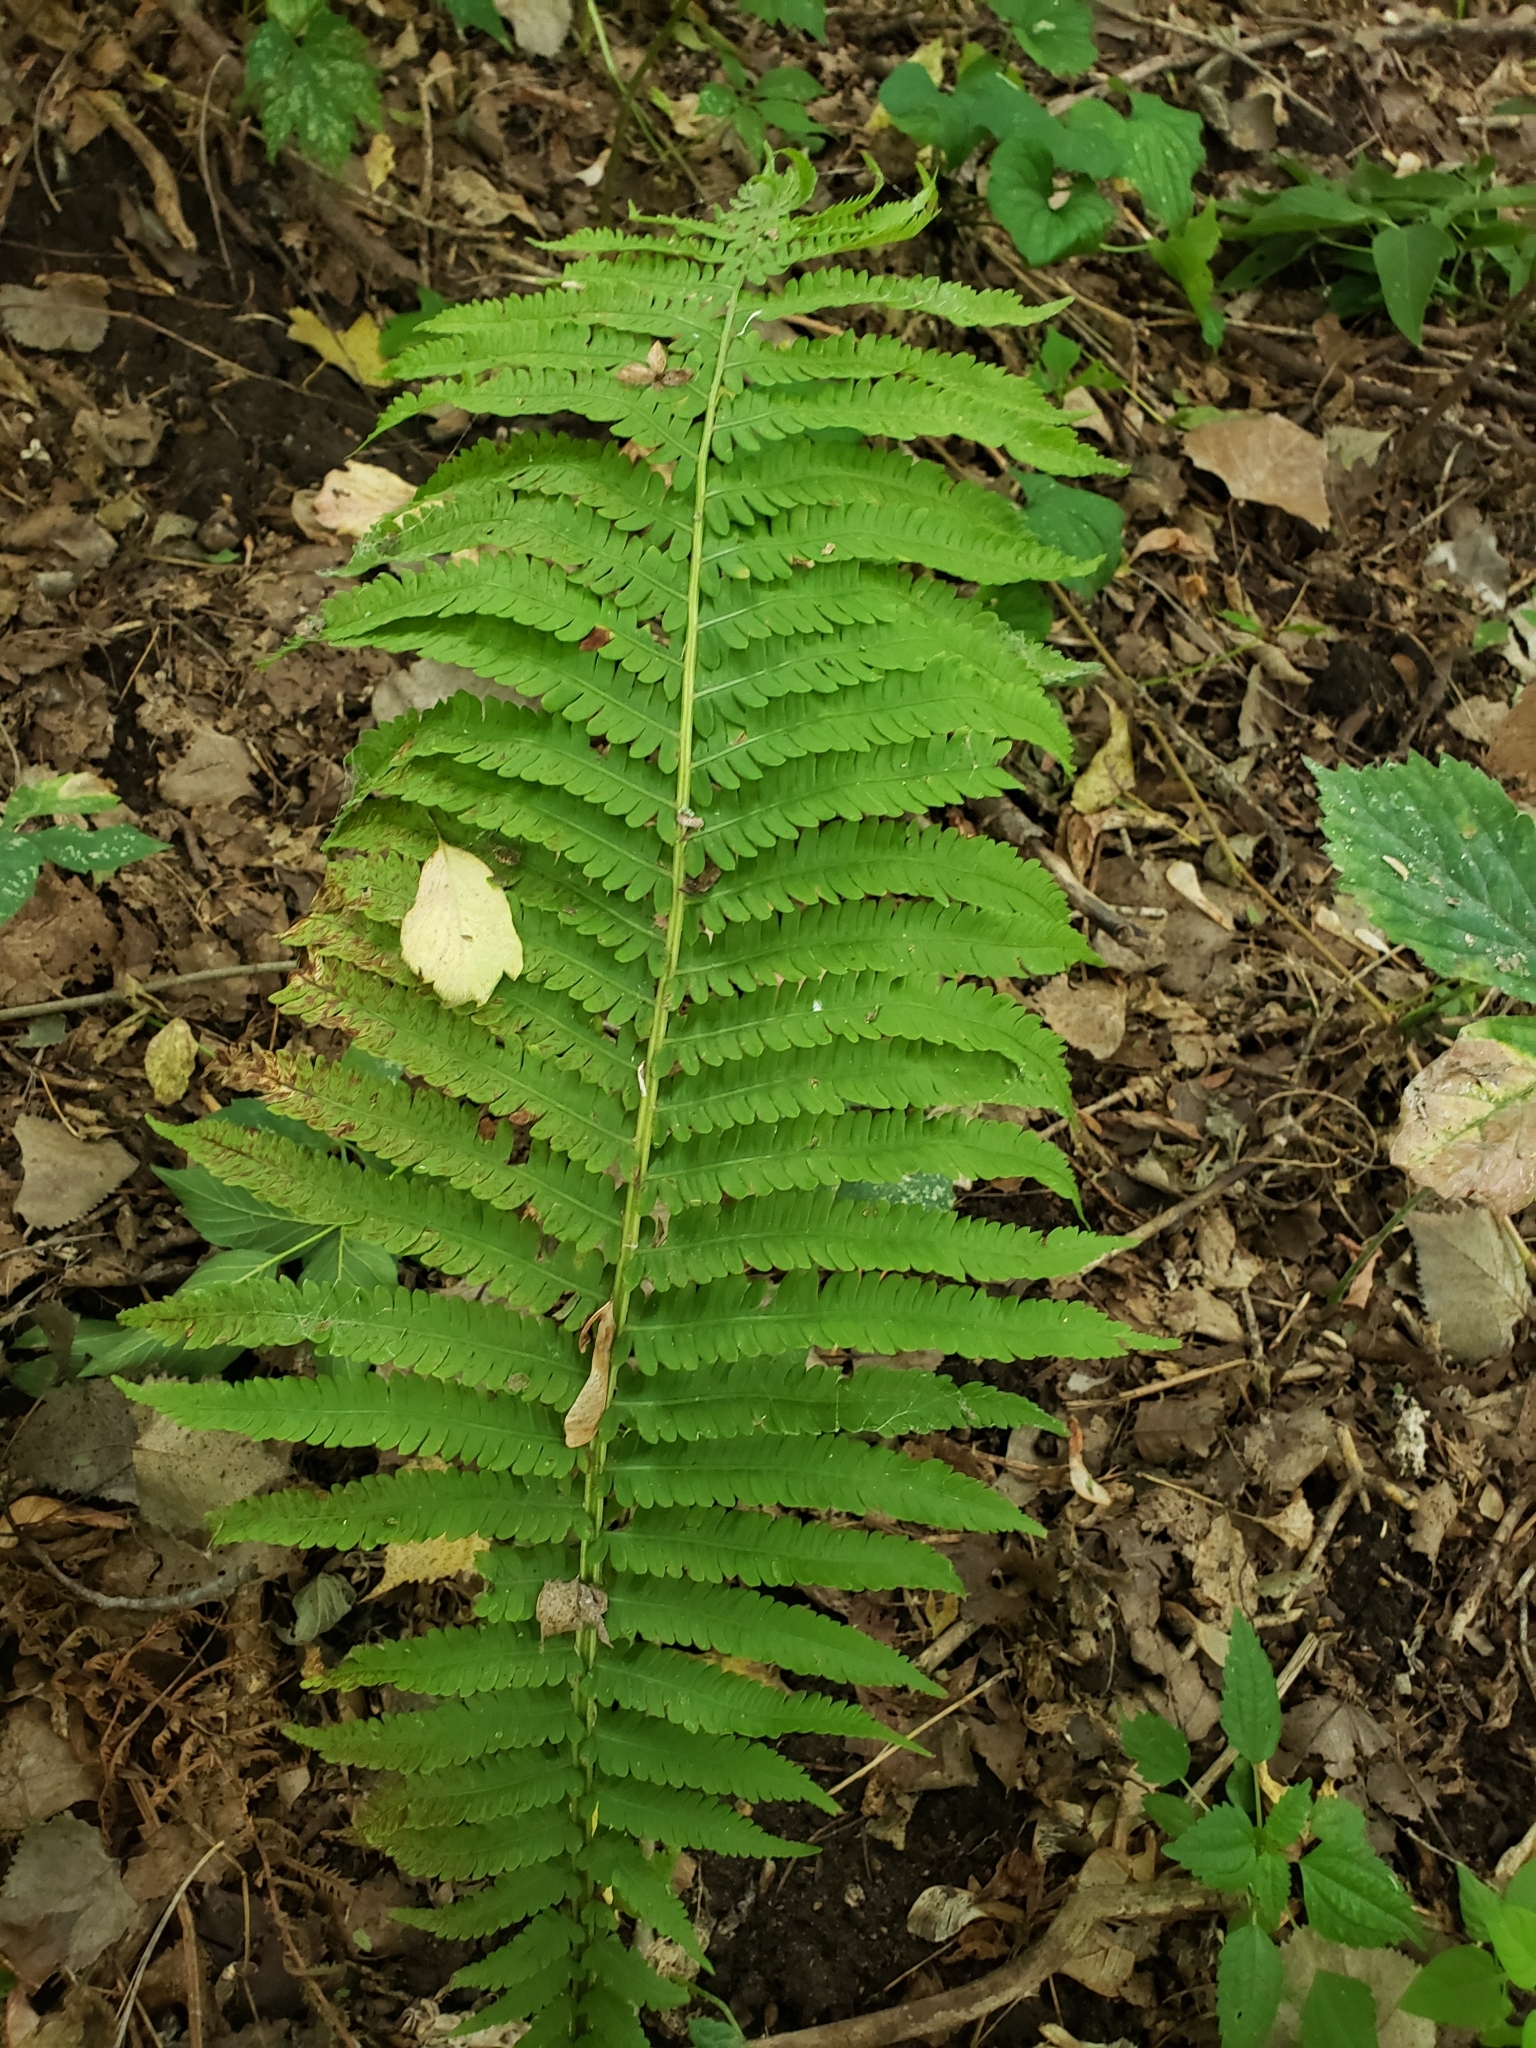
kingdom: Plantae
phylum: Tracheophyta
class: Polypodiopsida
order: Polypodiales
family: Onocleaceae
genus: Matteuccia
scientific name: Matteuccia struthiopteris
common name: Ostrich fern
